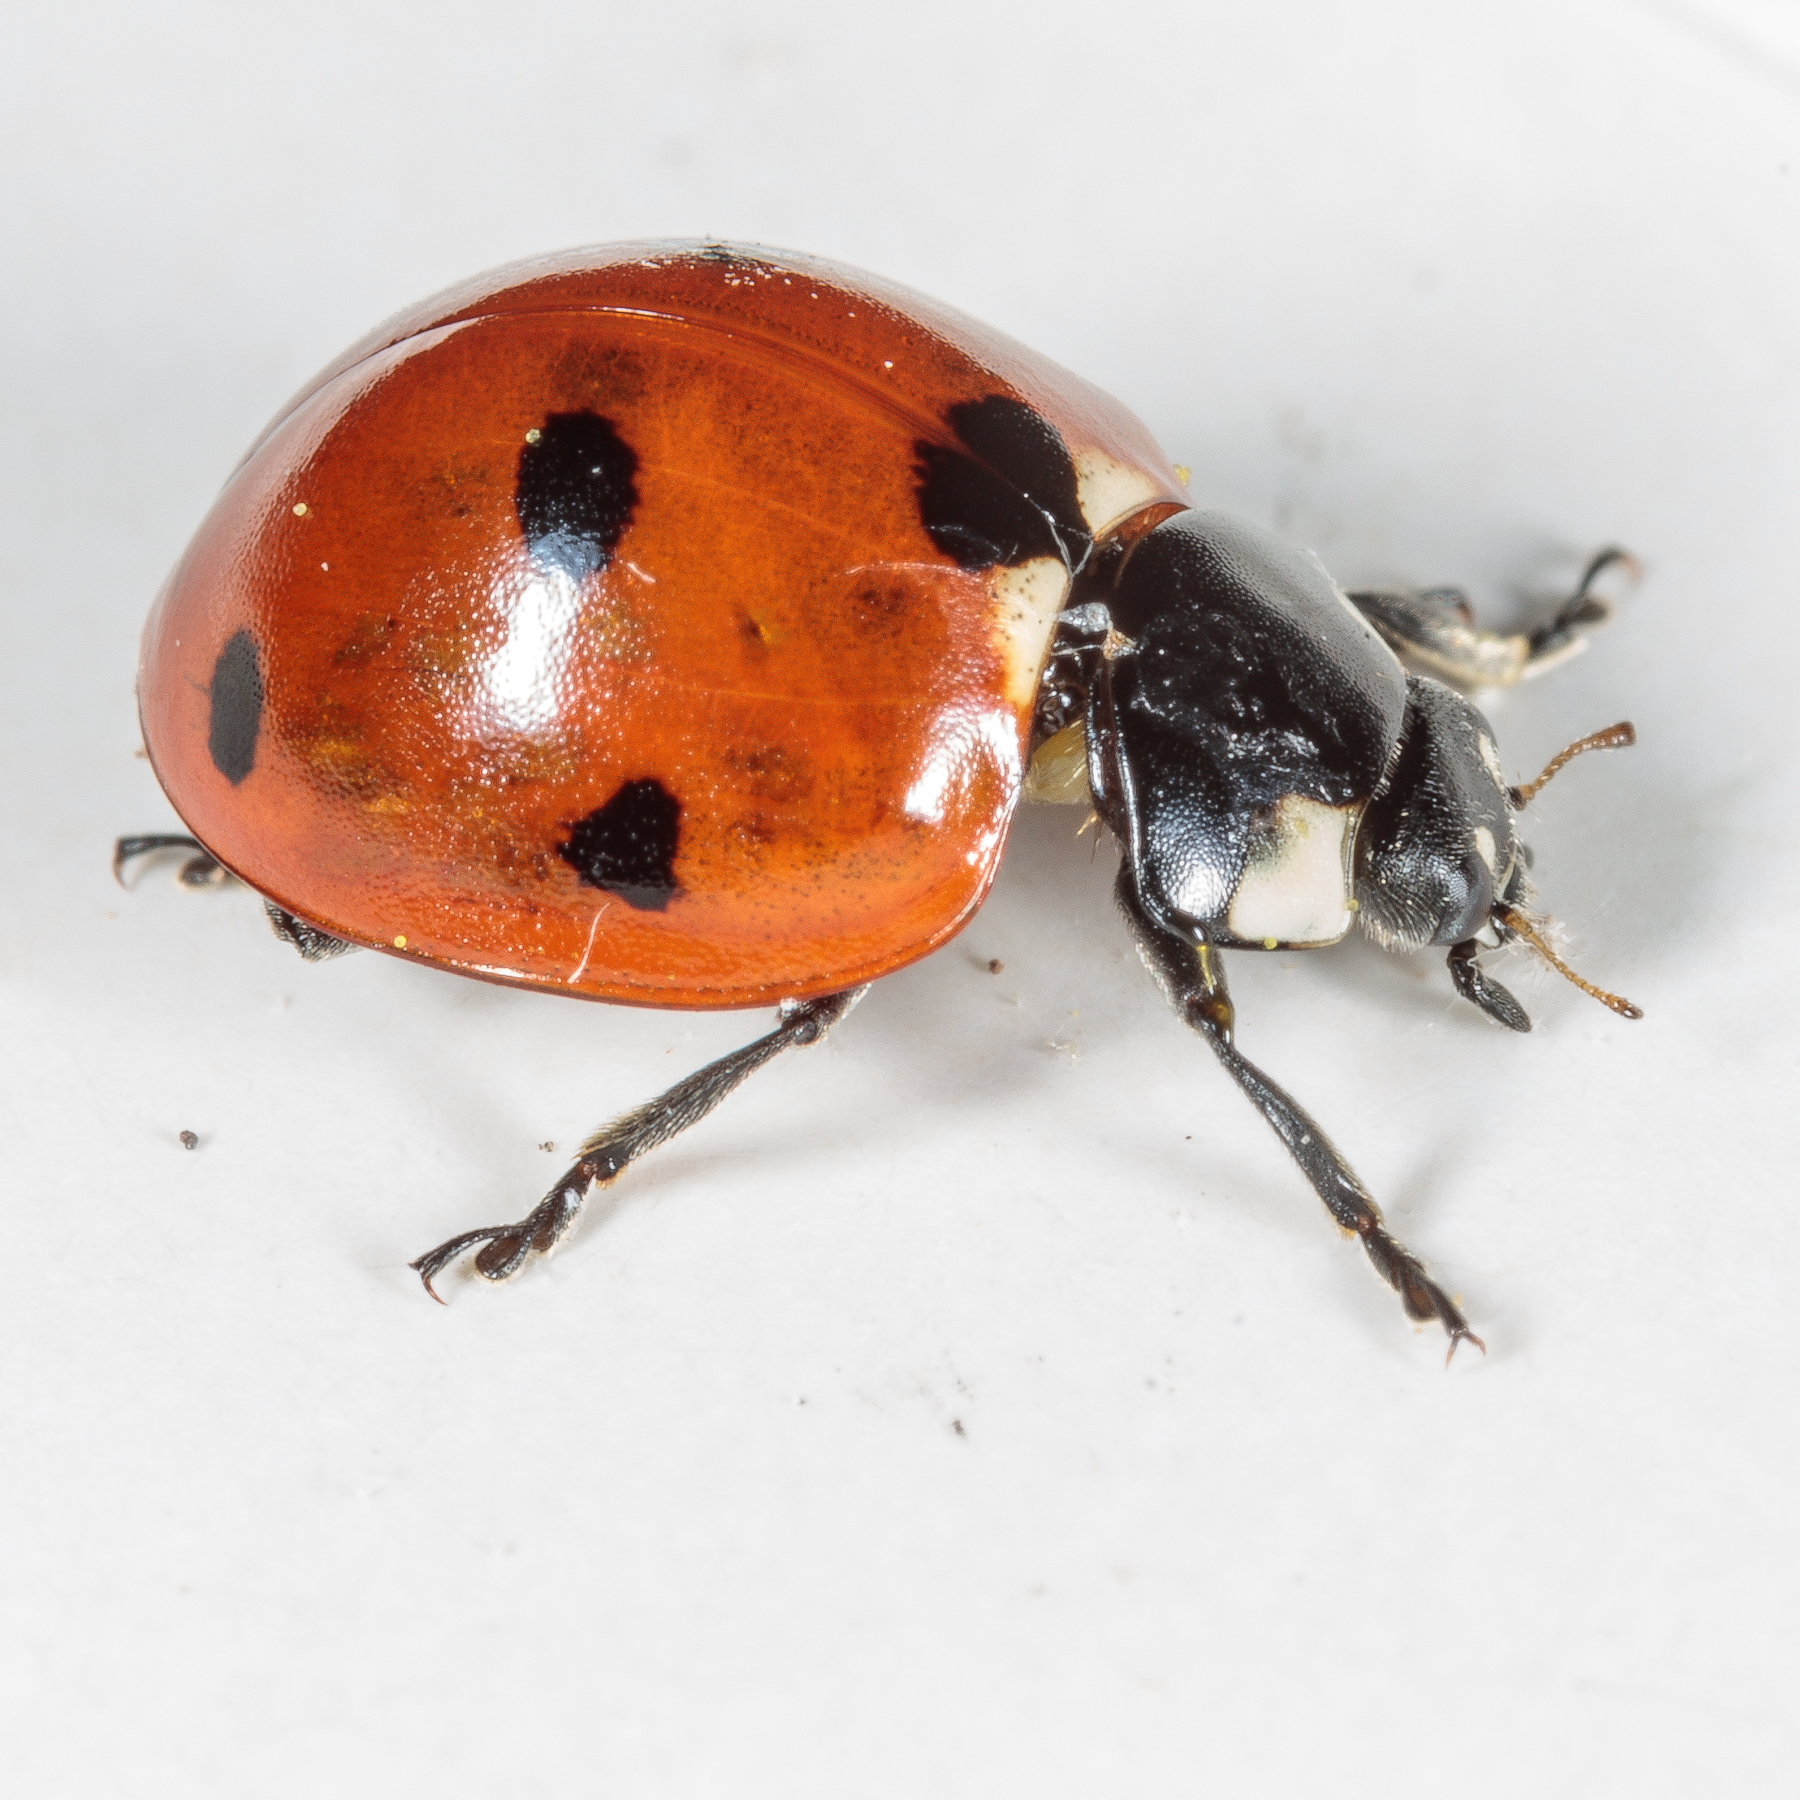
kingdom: Animalia
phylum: Arthropoda
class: Insecta
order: Coleoptera
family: Coccinellidae
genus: Coccinella
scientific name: Coccinella septempunctata
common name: Sevenspotted lady beetle
